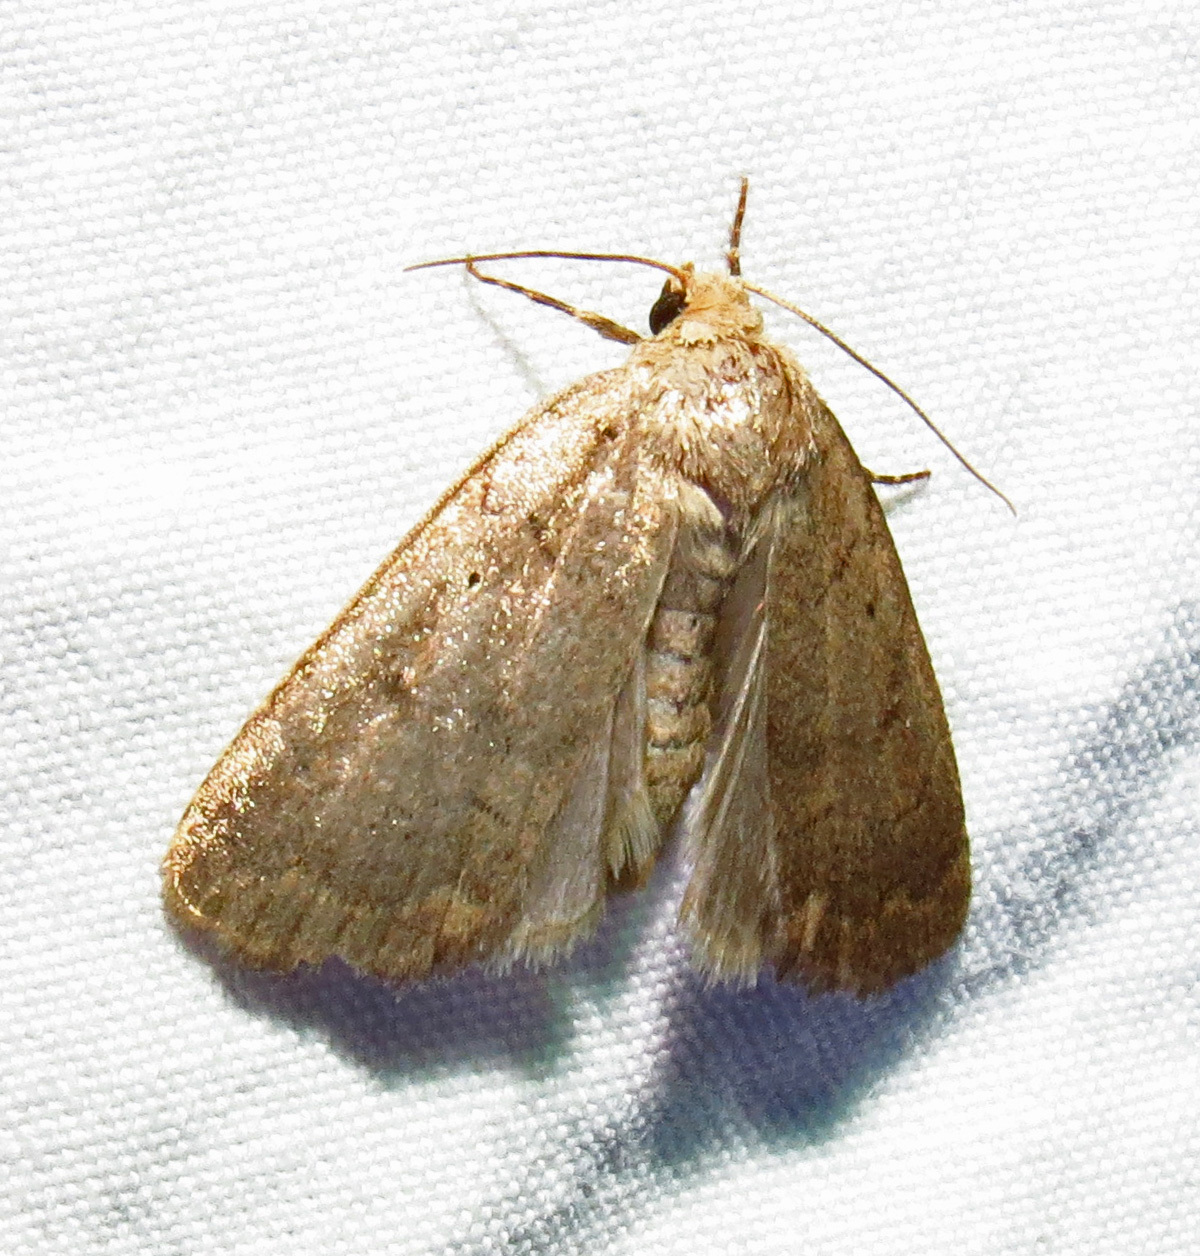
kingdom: Animalia
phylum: Arthropoda
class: Insecta
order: Lepidoptera
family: Noctuidae
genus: Athetis
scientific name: Athetis tarda
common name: Slowpoke moth
